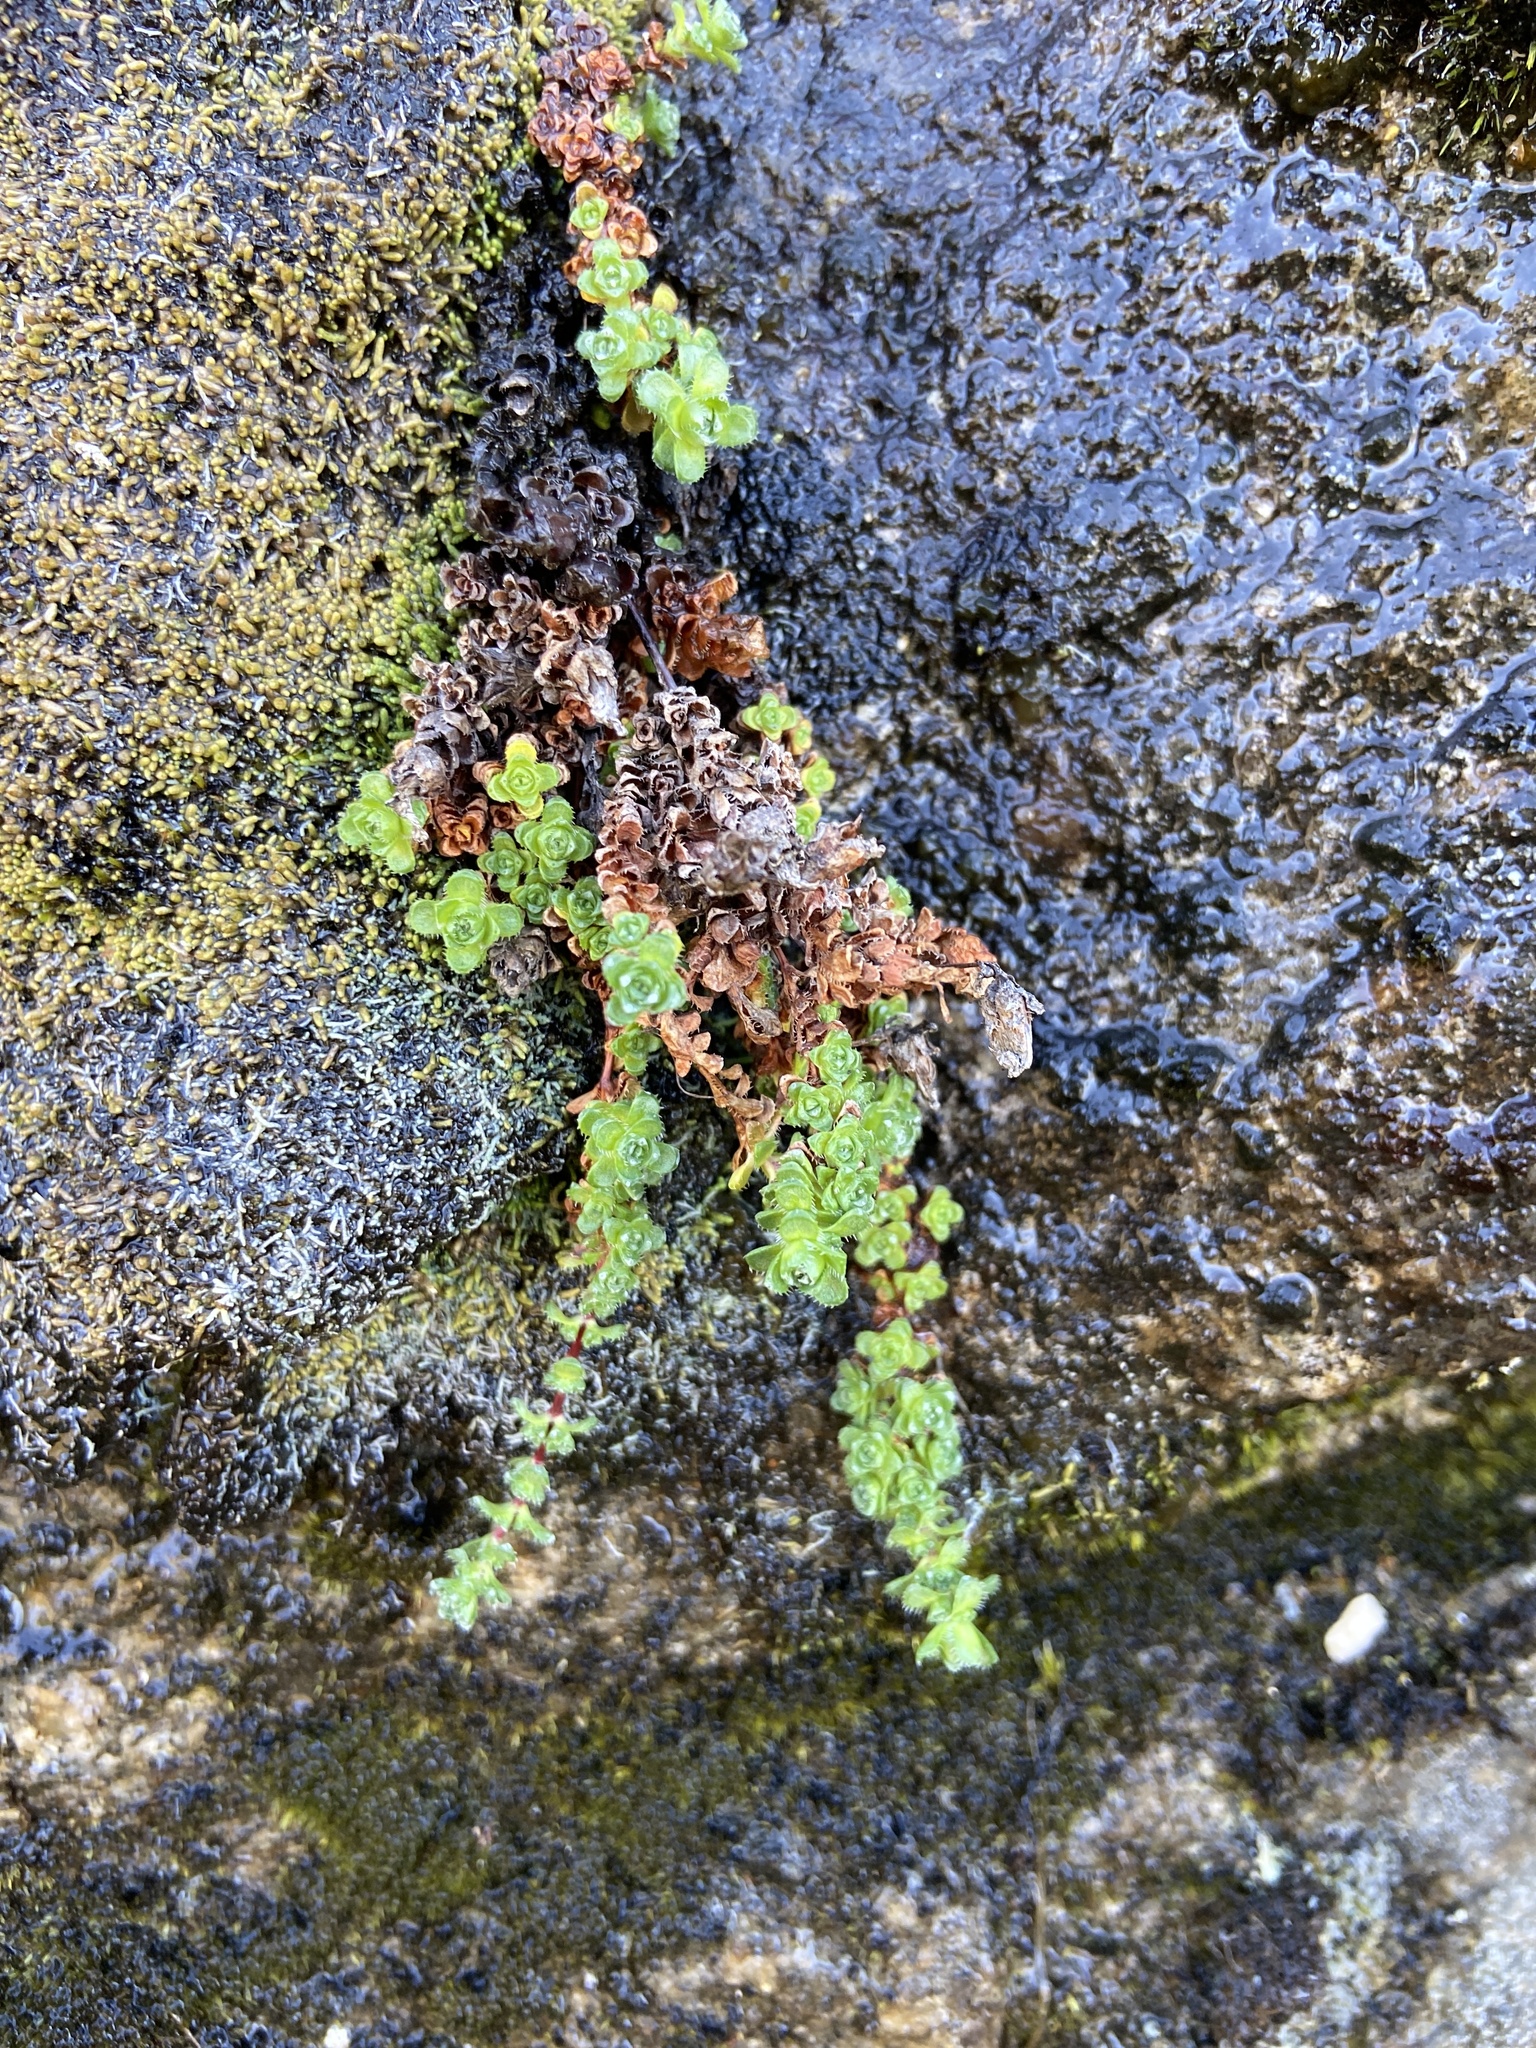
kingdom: Plantae
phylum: Tracheophyta
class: Magnoliopsida
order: Saxifragales
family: Saxifragaceae
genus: Saxifraga
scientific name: Saxifraga oppositifolia
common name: Purple saxifrage
